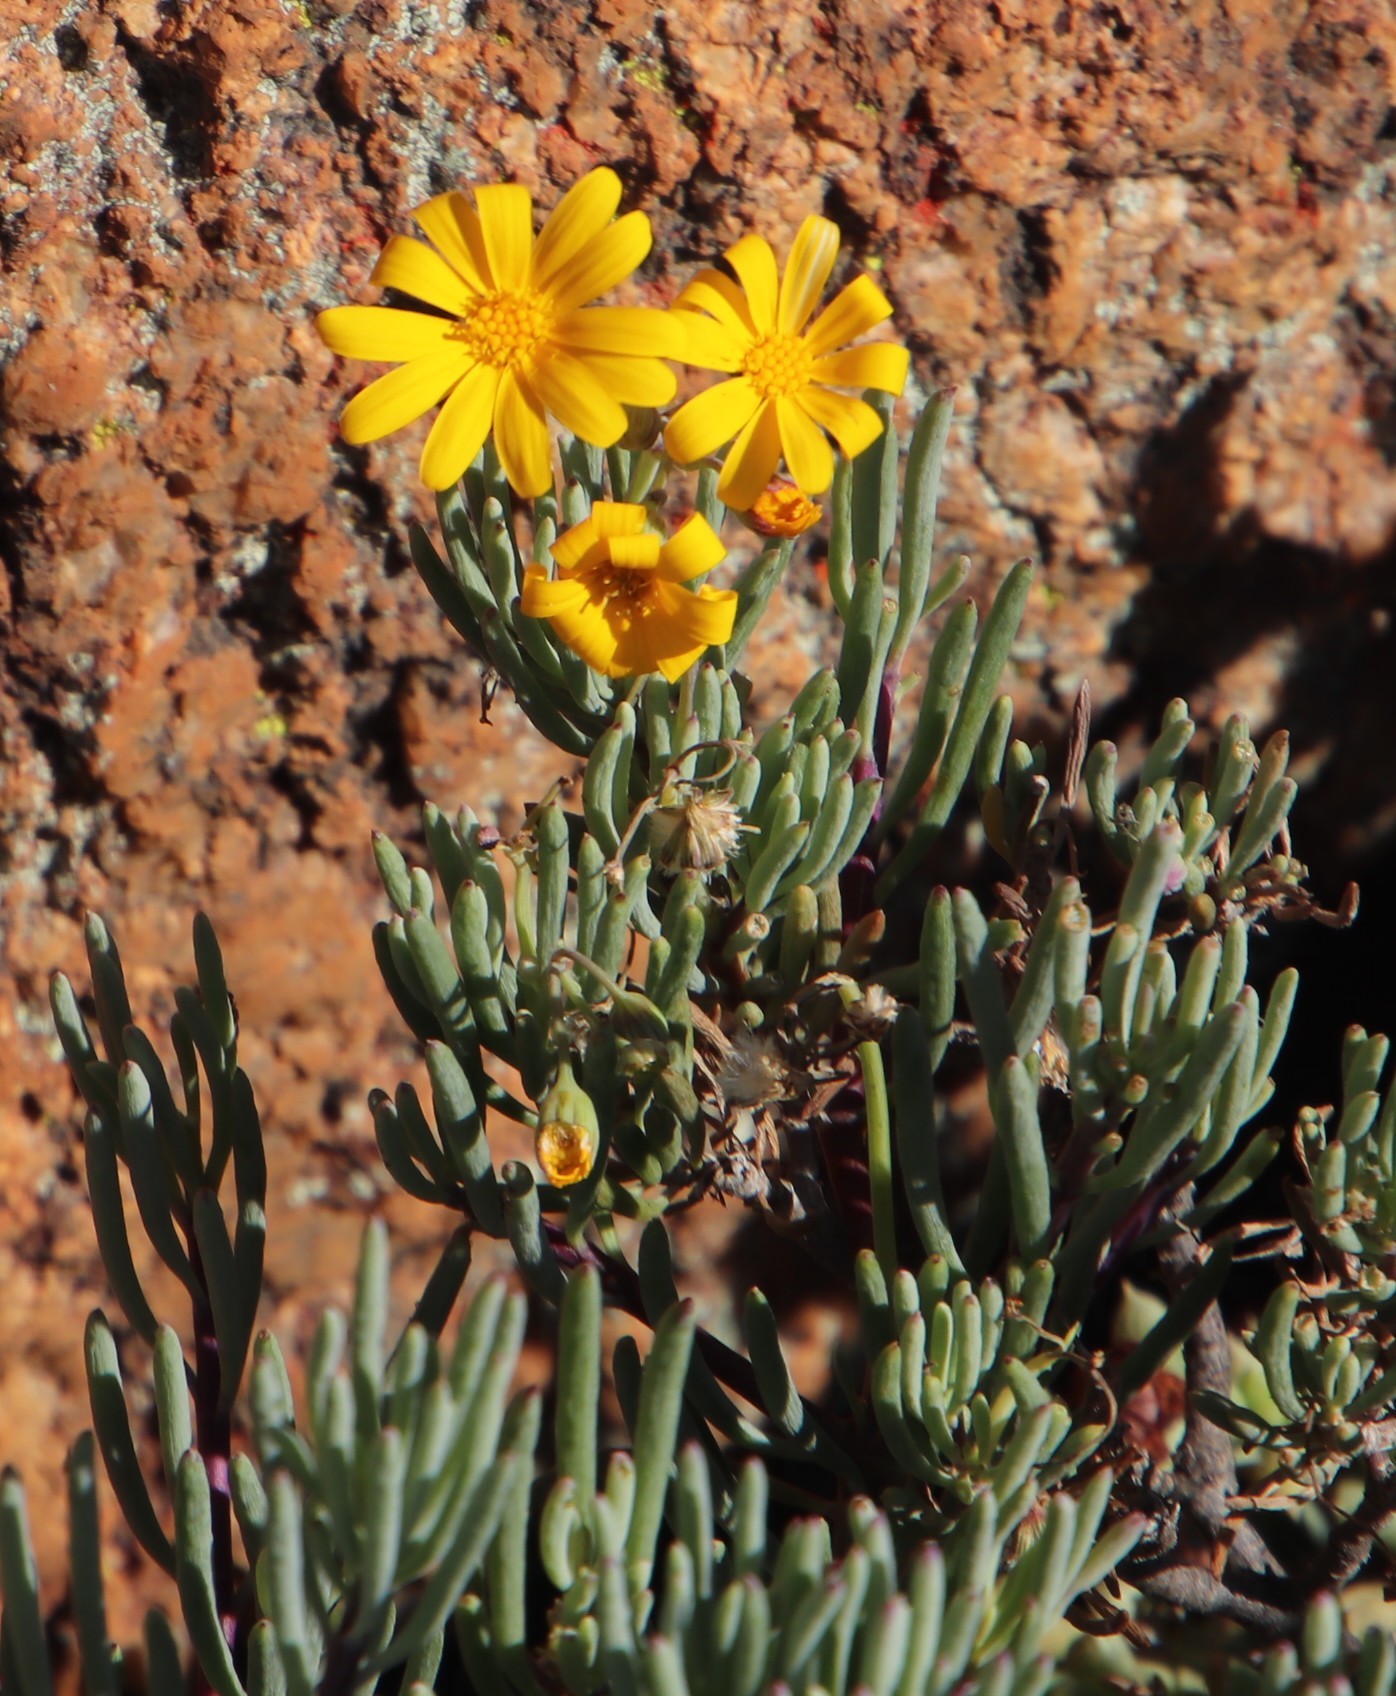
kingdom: Plantae
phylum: Tracheophyta
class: Magnoliopsida
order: Asterales
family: Asteraceae
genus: Crassothonna
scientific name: Crassothonna cylindrica
